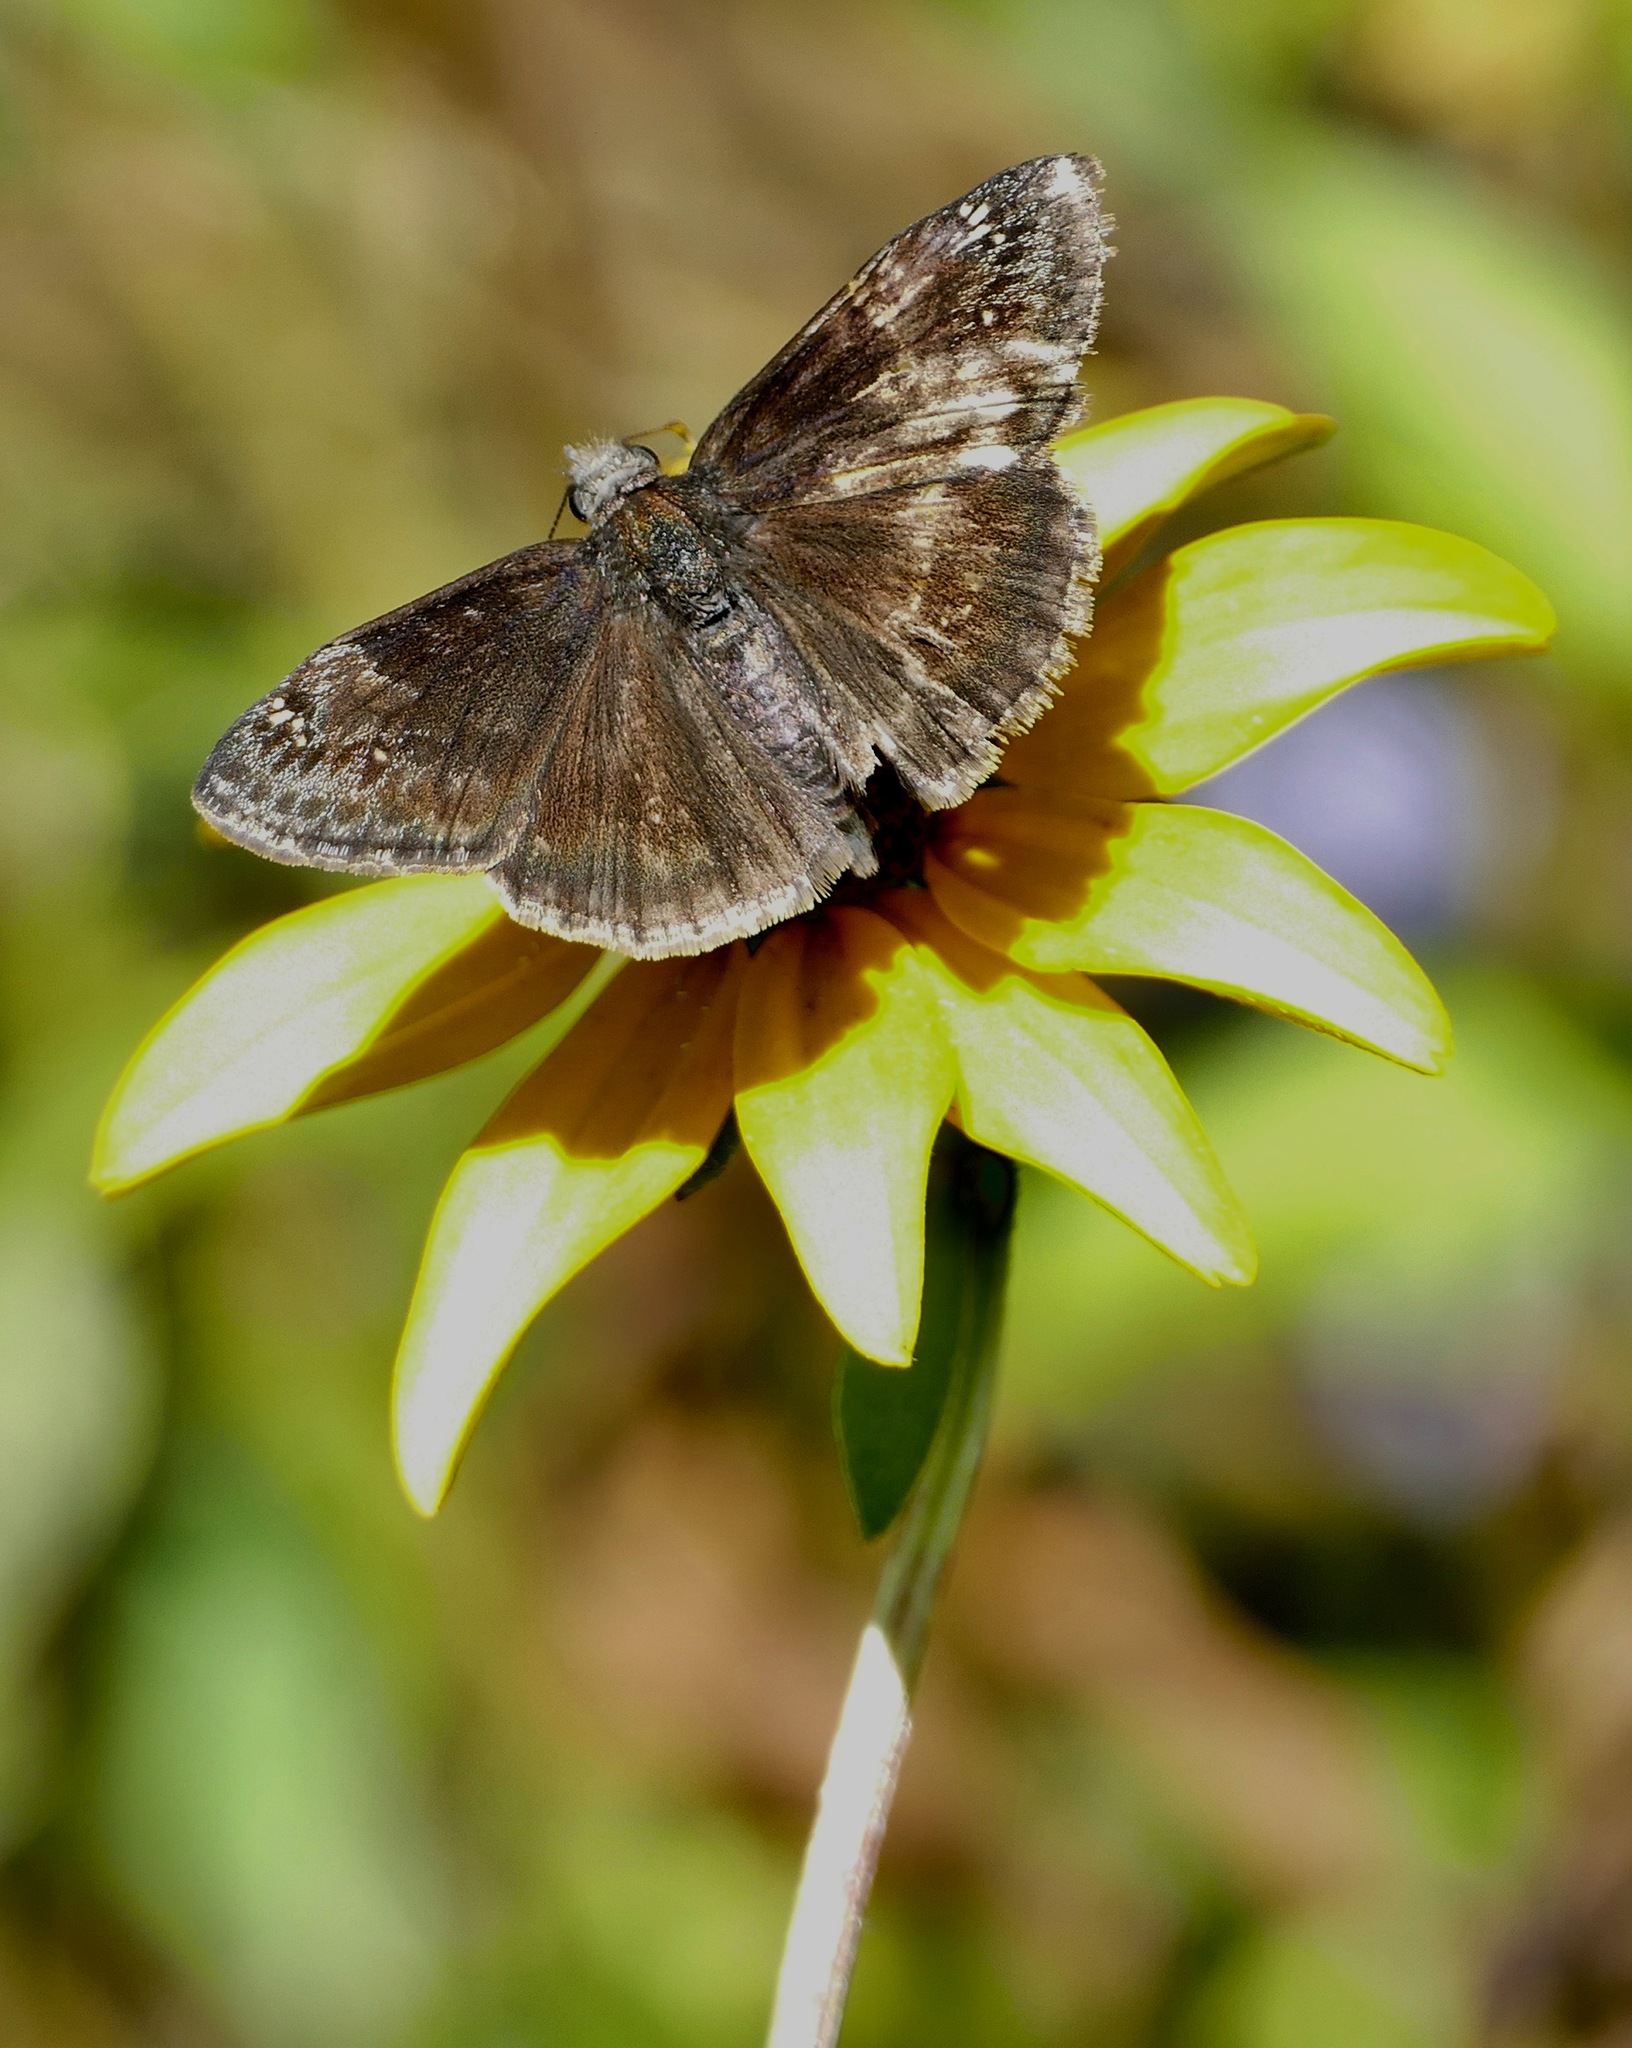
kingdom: Animalia
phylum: Arthropoda
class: Insecta
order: Lepidoptera
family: Hesperiidae
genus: Erynnis
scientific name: Erynnis baptisiae
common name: Wild indigo duskywing
